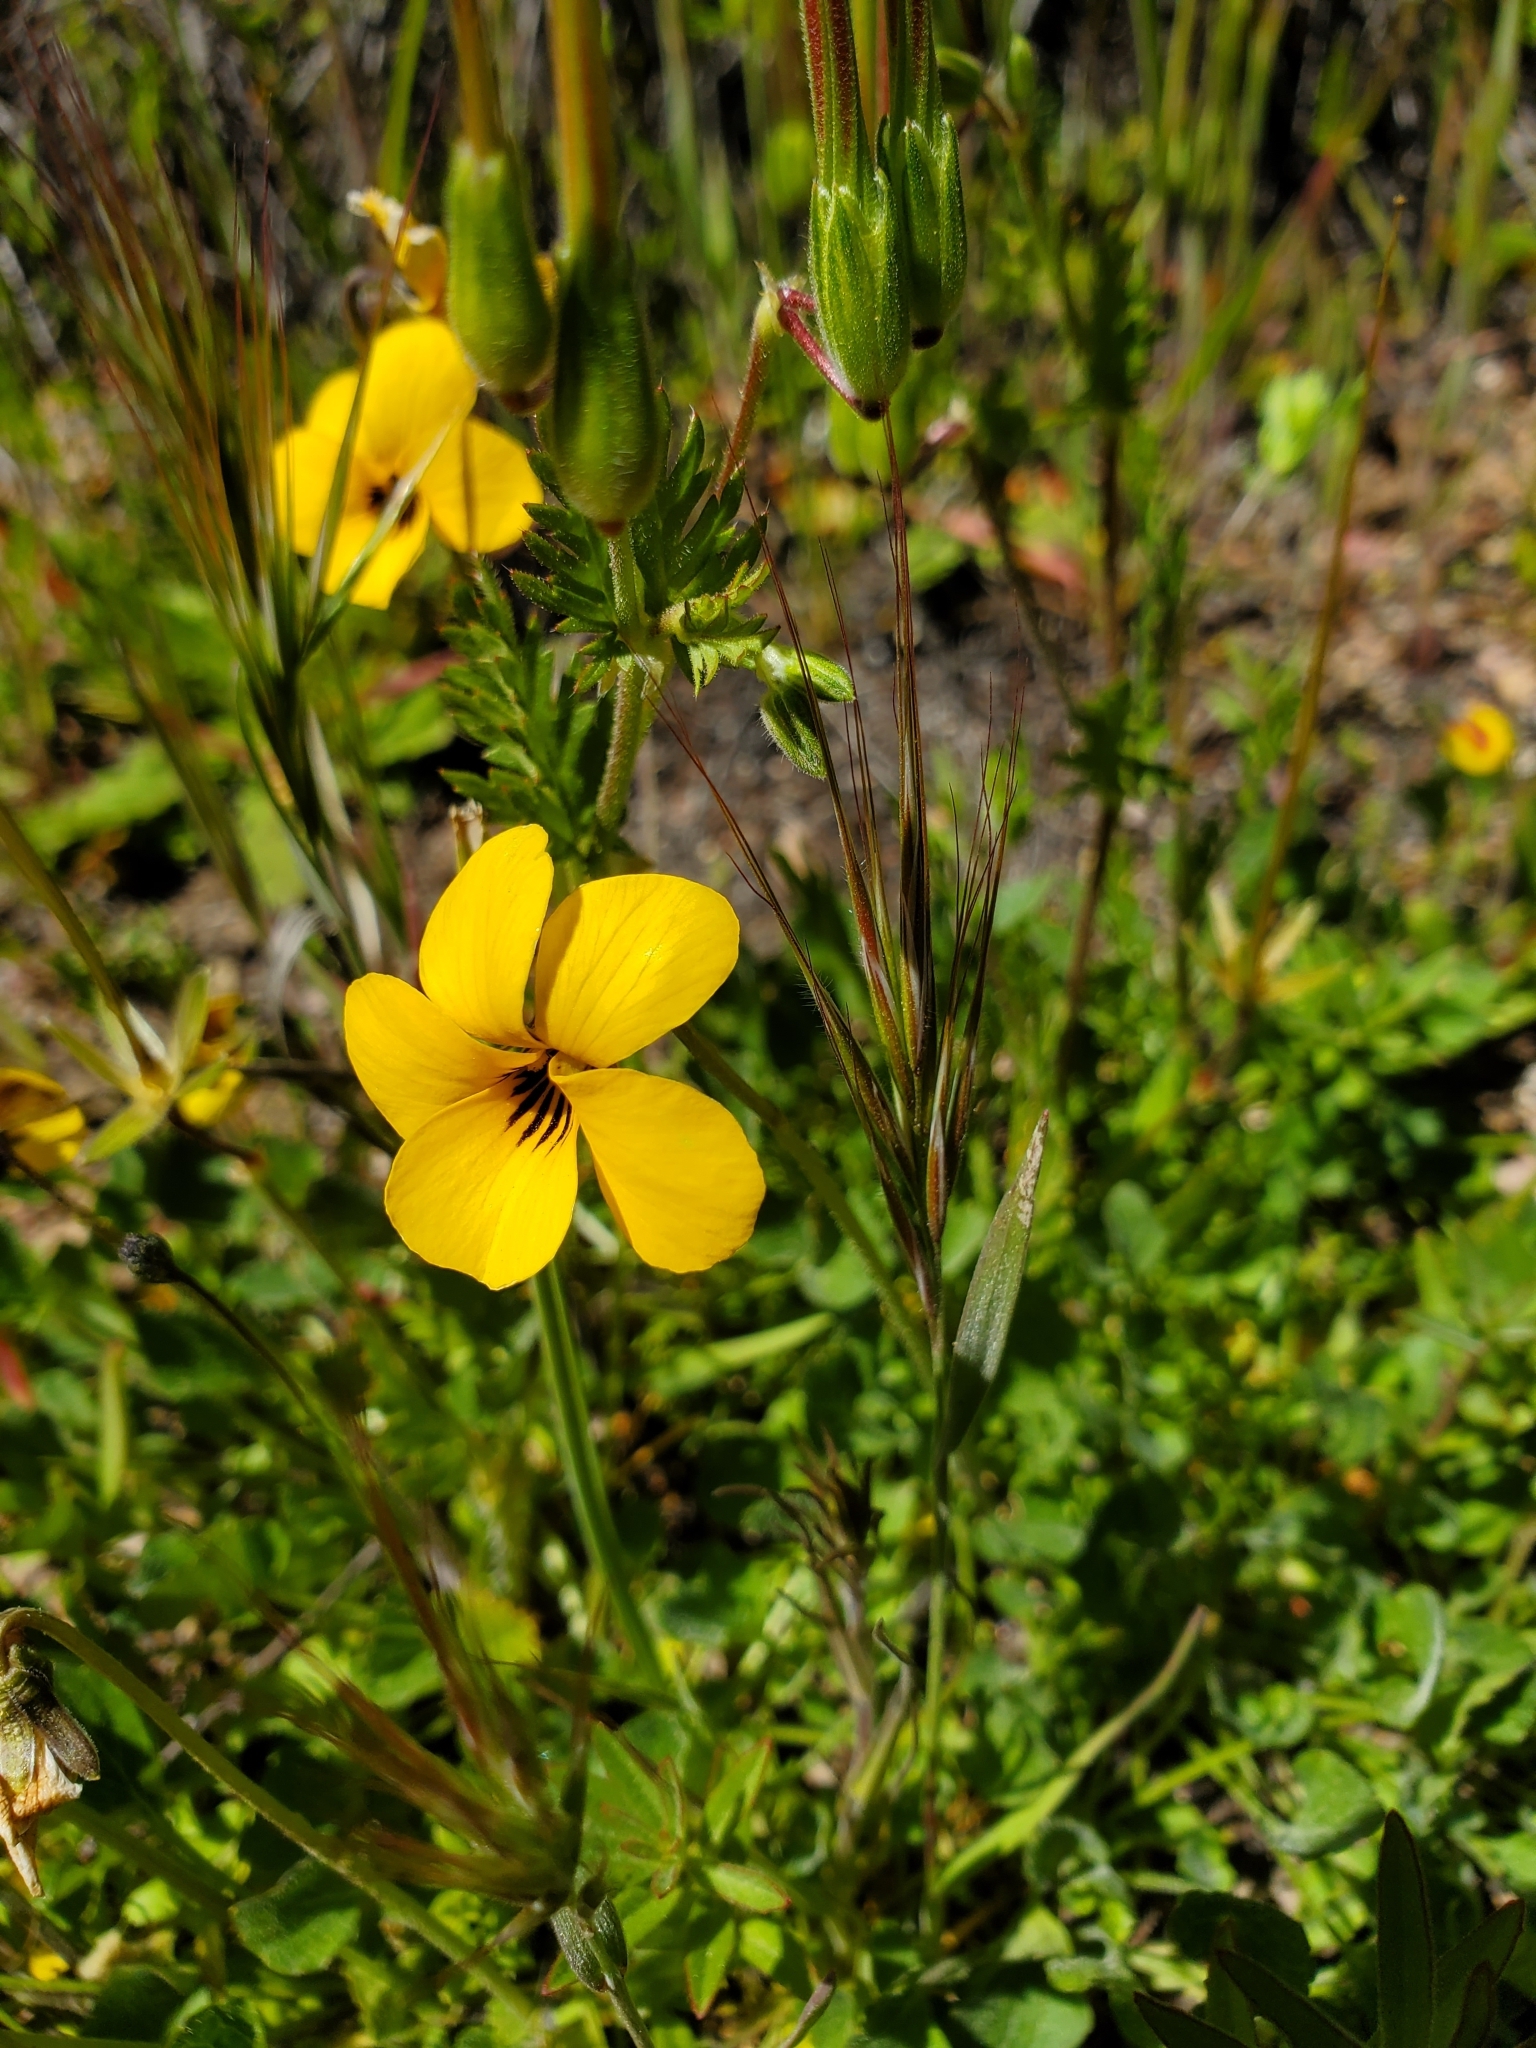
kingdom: Plantae
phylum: Tracheophyta
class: Magnoliopsida
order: Malpighiales
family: Violaceae
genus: Viola
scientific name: Viola pedunculata
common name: California golden violet
